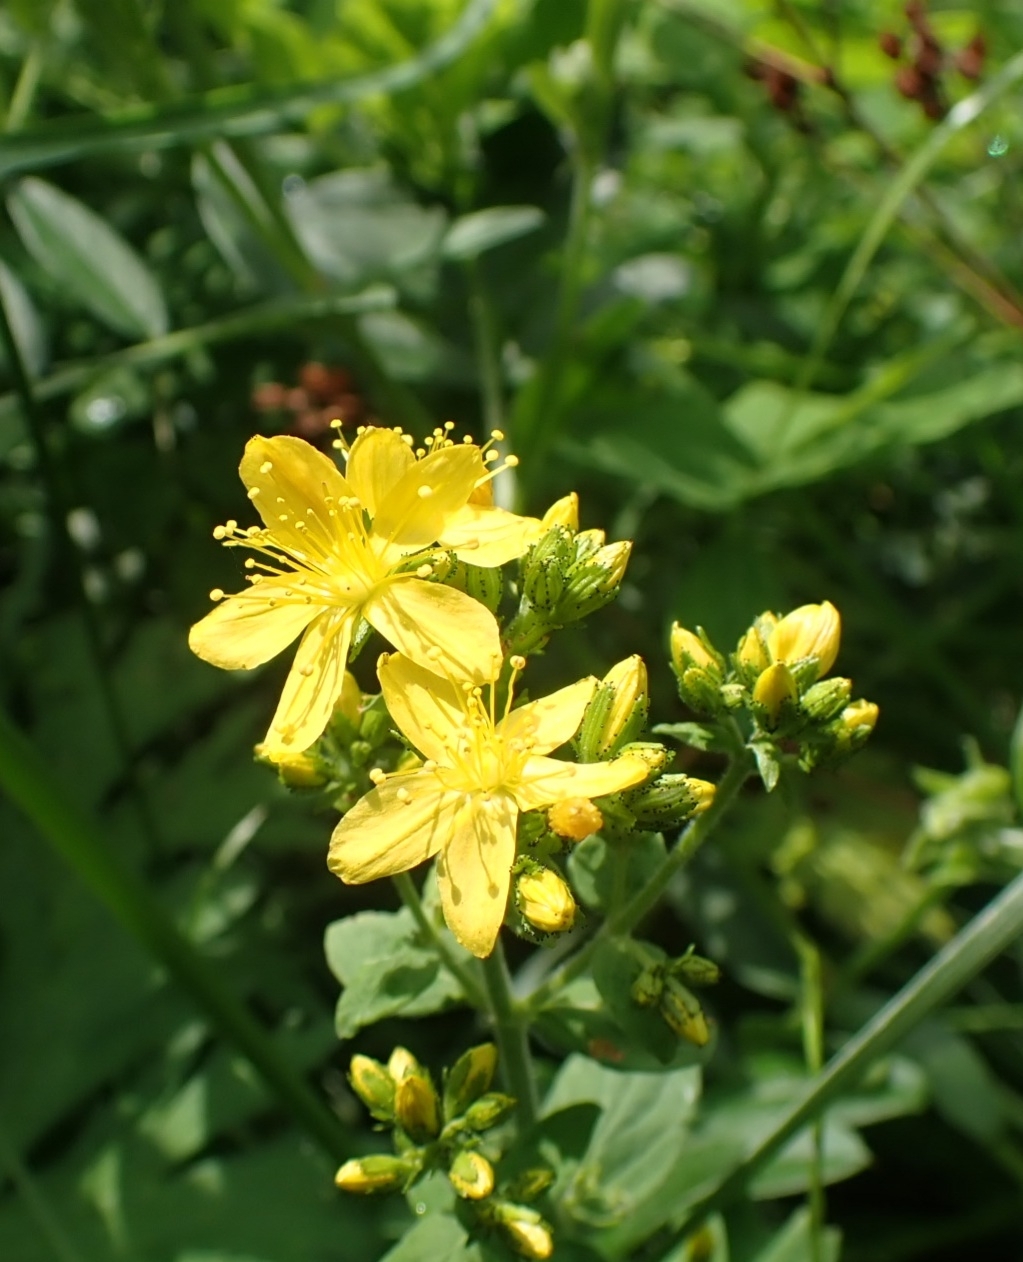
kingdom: Plantae
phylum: Tracheophyta
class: Magnoliopsida
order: Malpighiales
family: Hypericaceae
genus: Hypericum
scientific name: Hypericum hirsutum
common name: Hairy st. john's-wort
